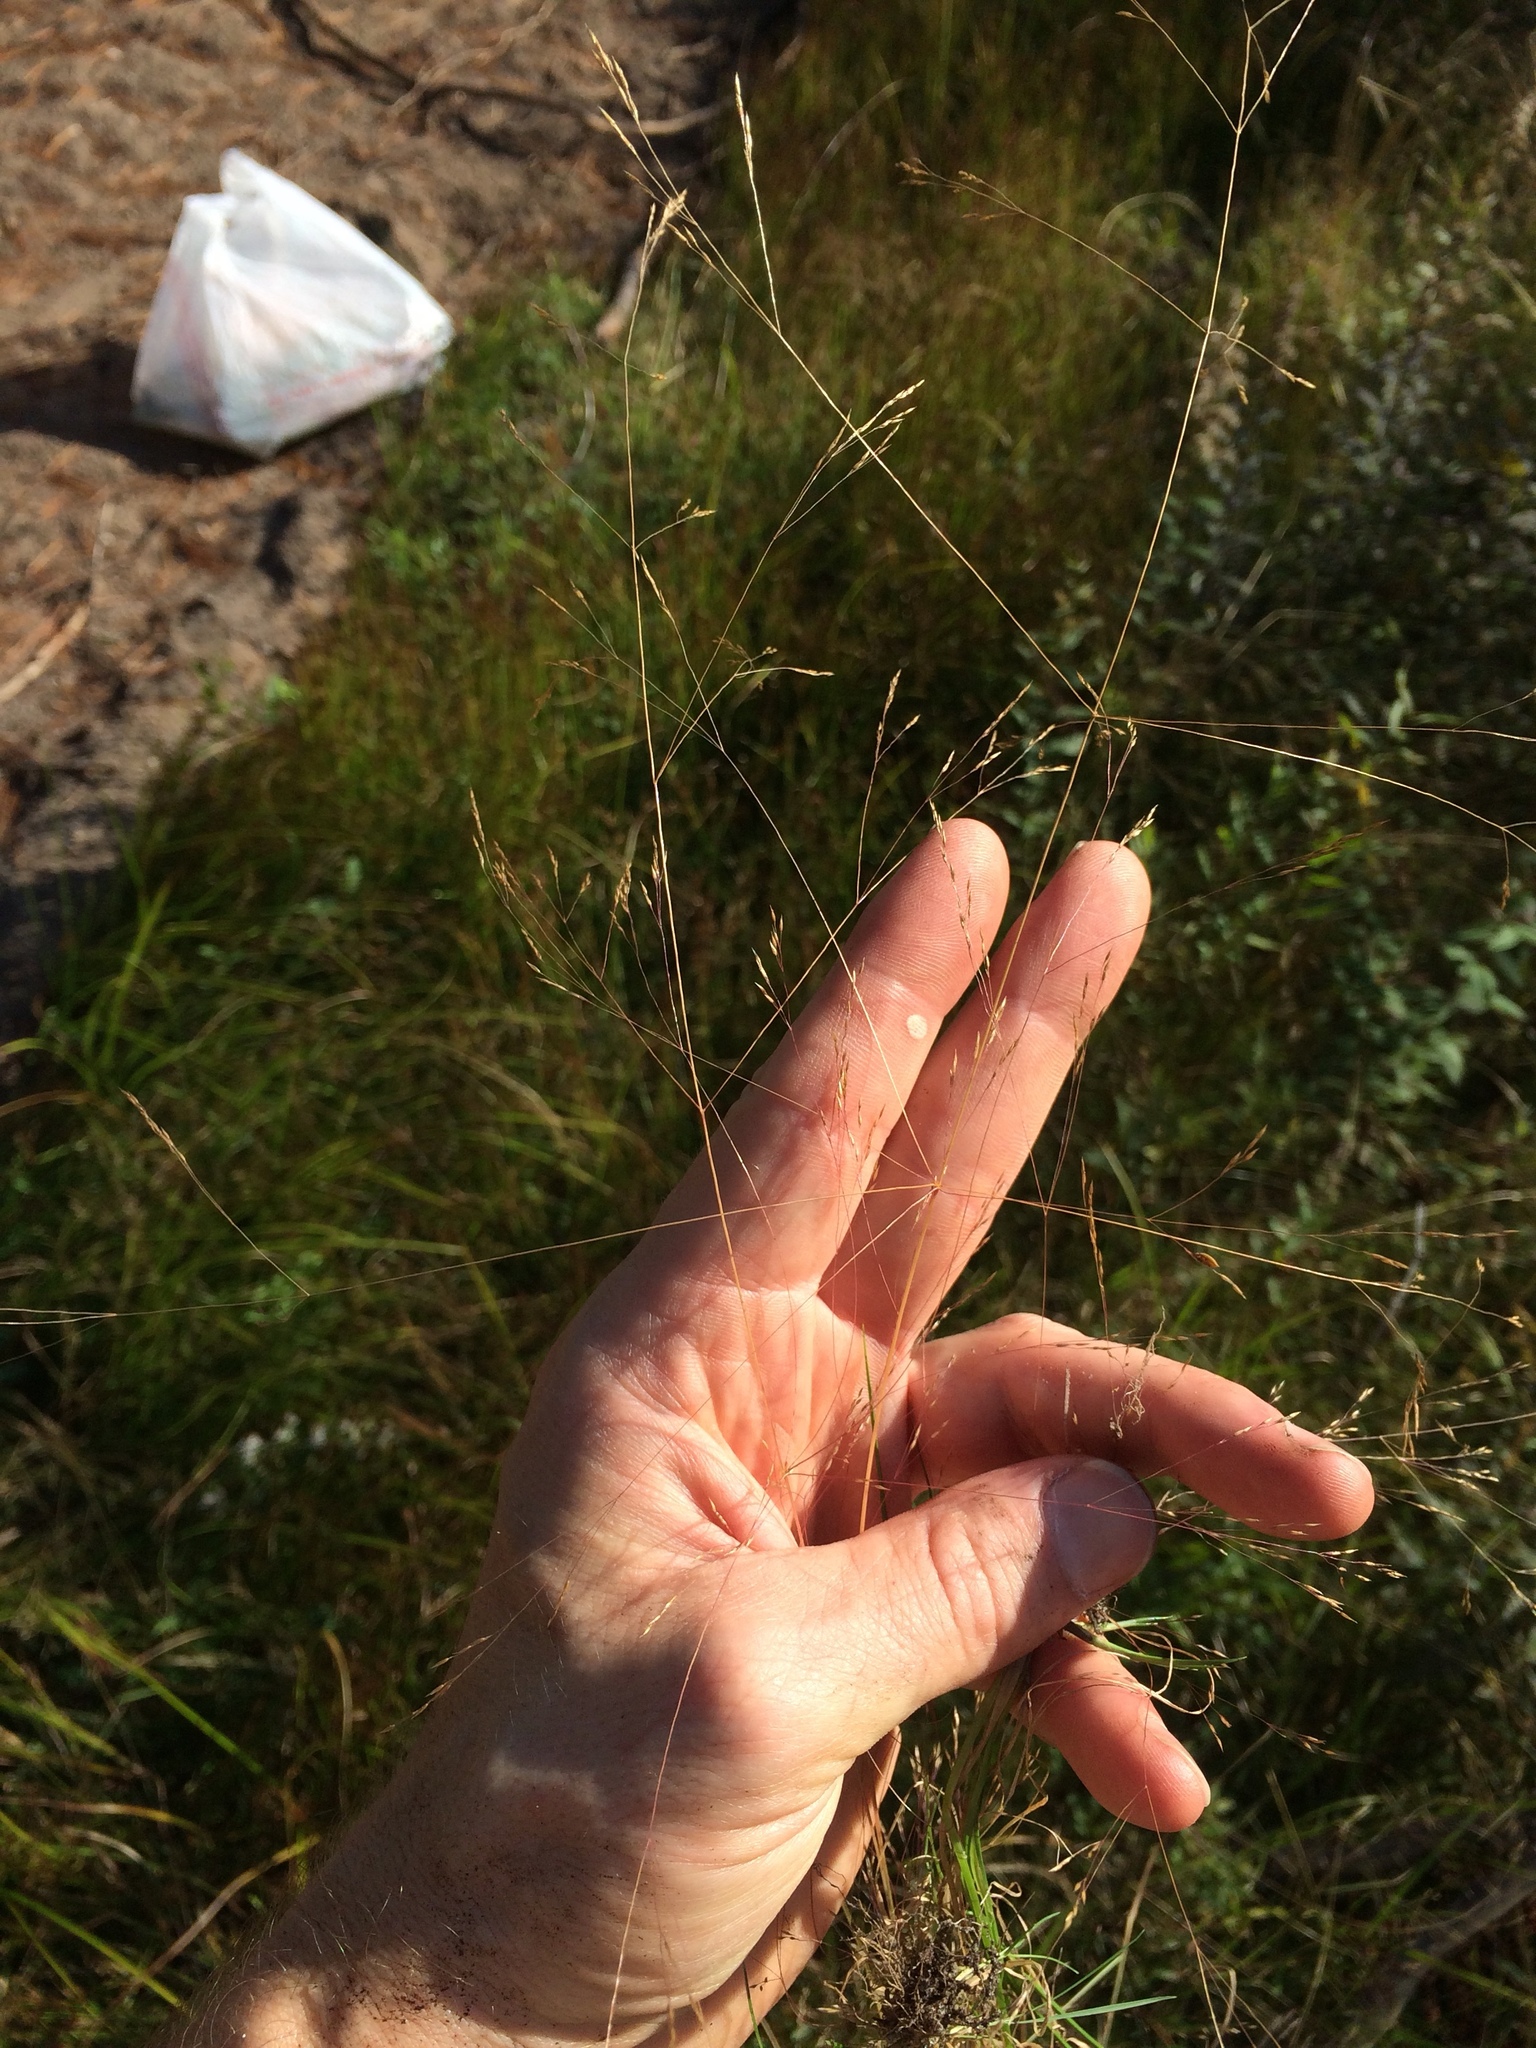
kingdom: Plantae
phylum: Tracheophyta
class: Liliopsida
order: Poales
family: Poaceae
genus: Agrostis
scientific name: Agrostis scabra
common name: Rough bent
